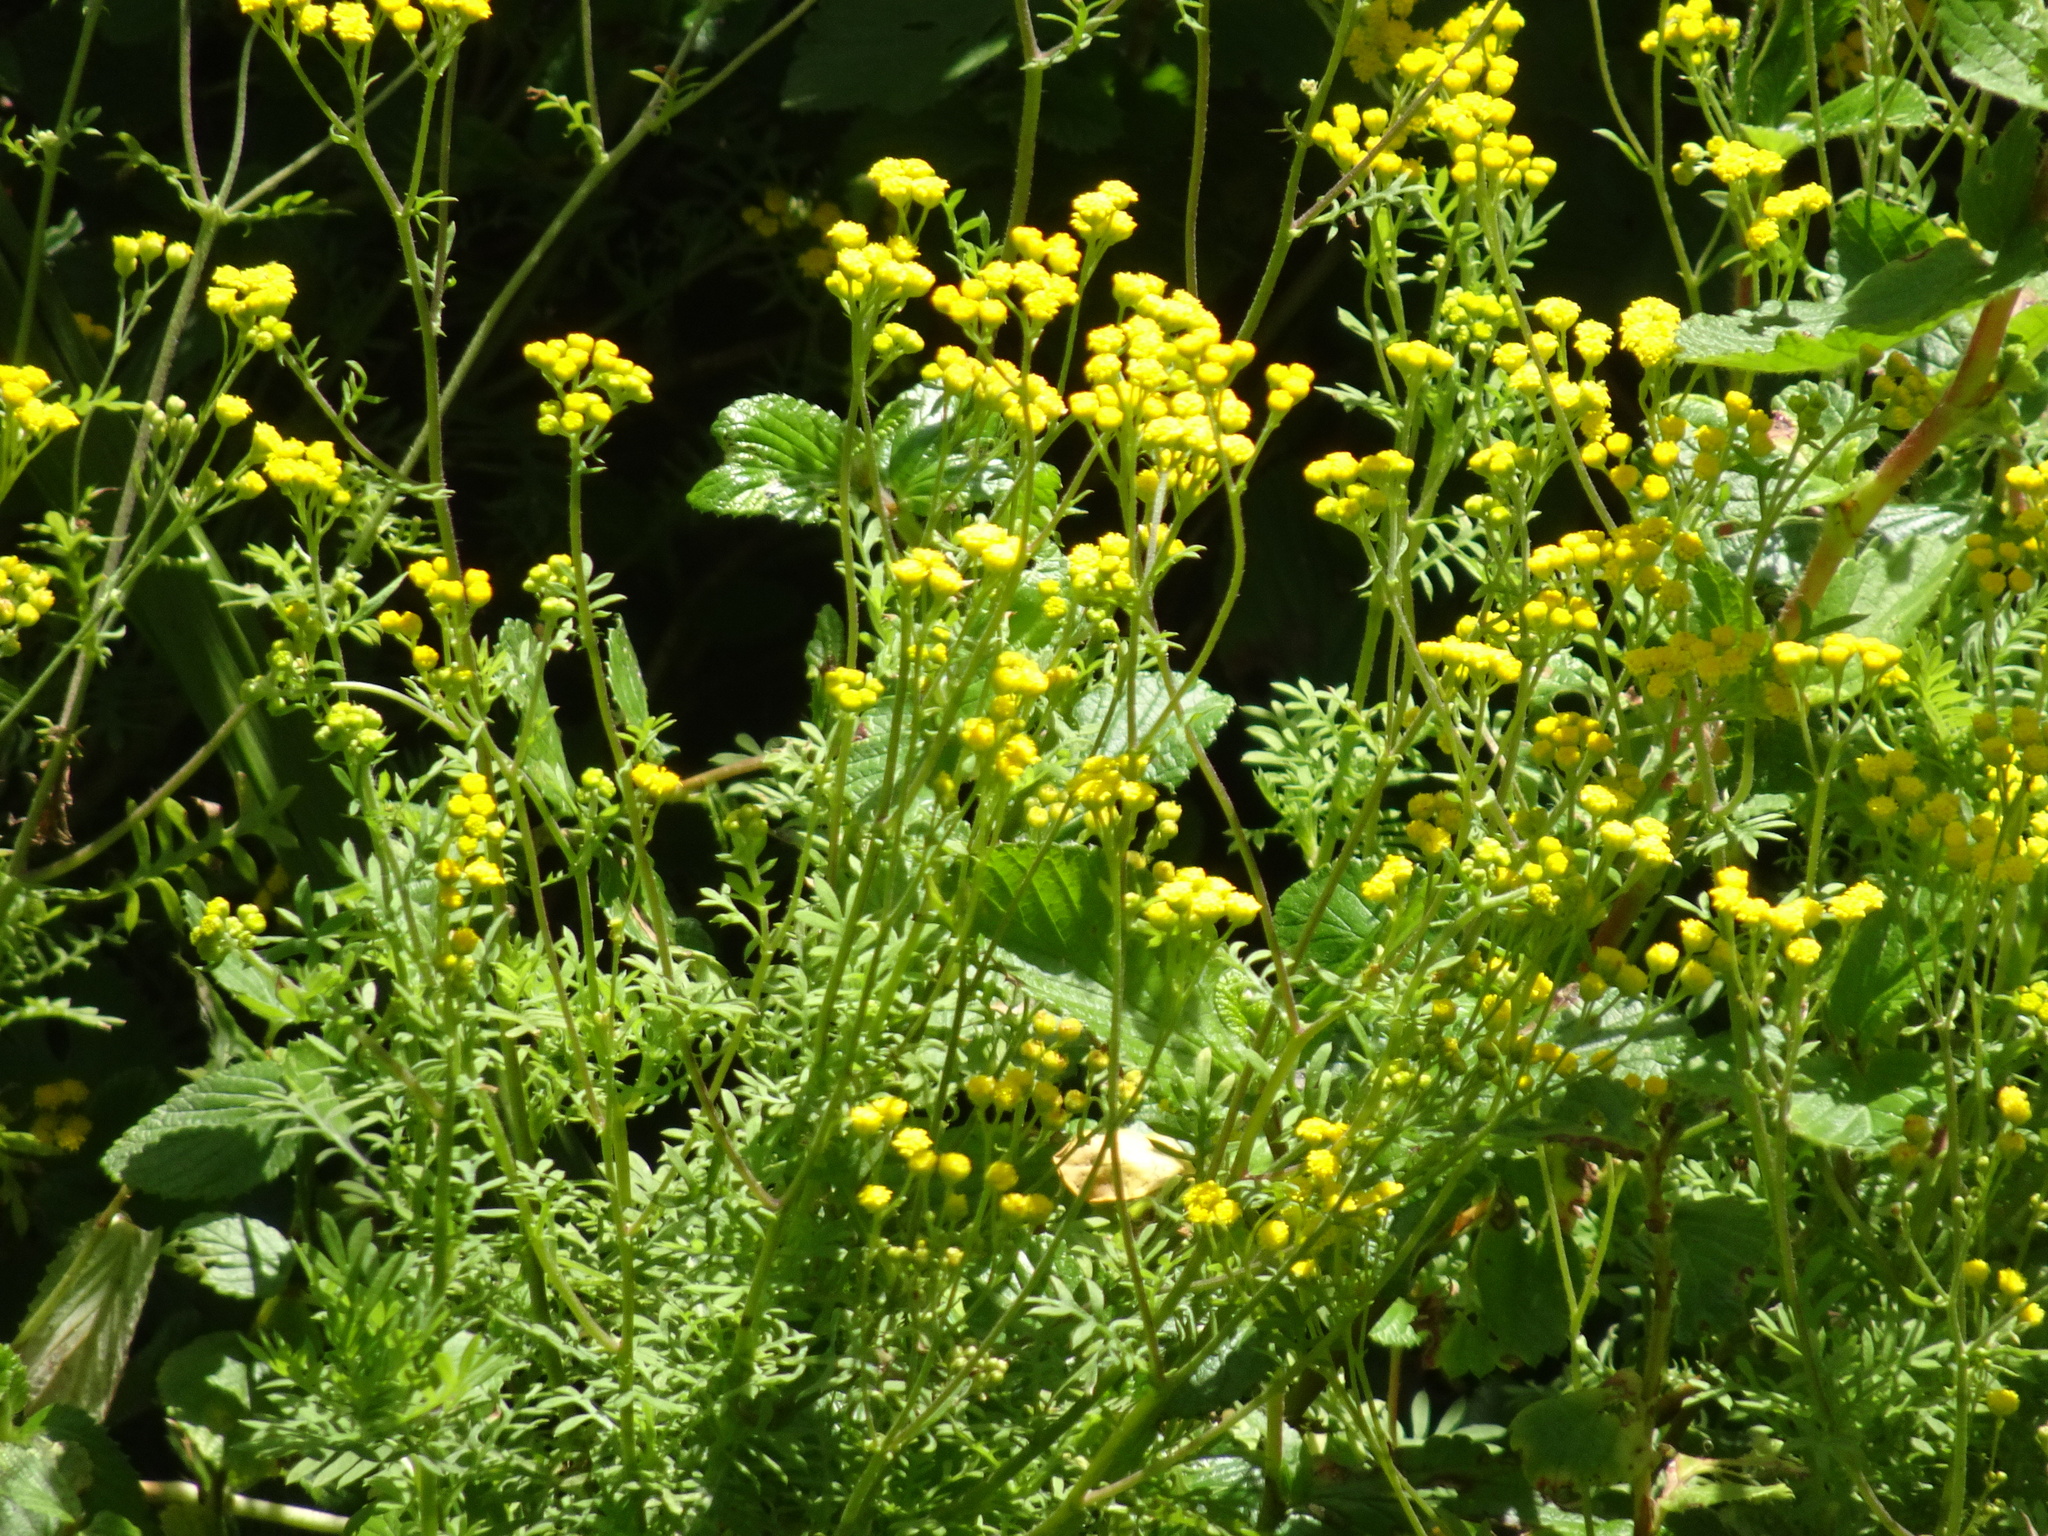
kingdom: Plantae
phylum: Tracheophyta
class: Magnoliopsida
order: Asterales
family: Asteraceae
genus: Hippia
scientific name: Hippia frutescens
